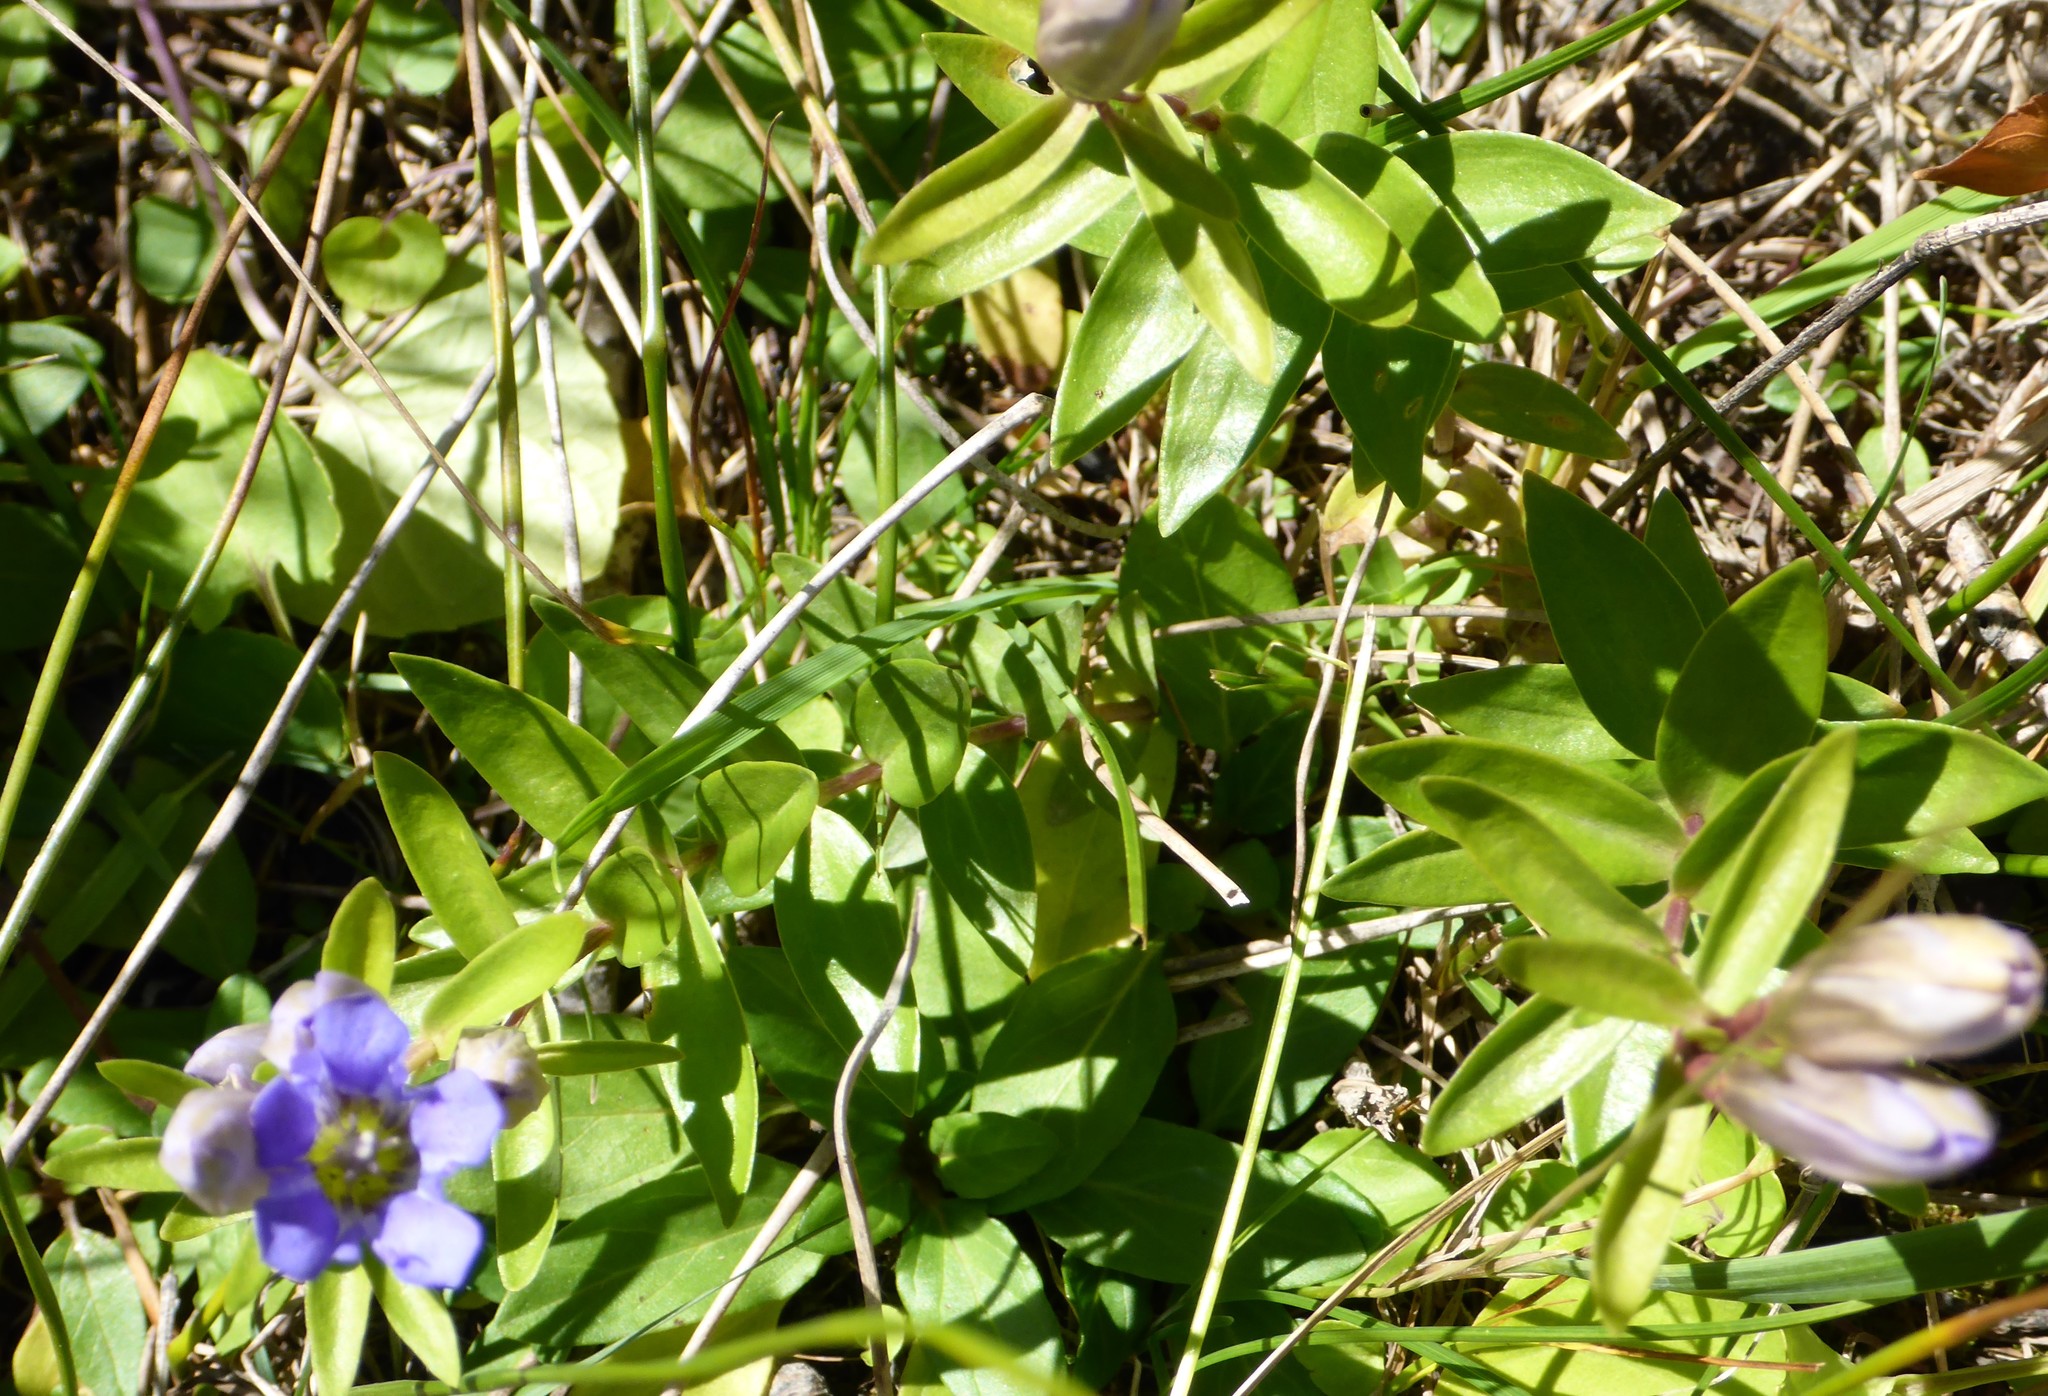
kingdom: Plantae
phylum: Tracheophyta
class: Magnoliopsida
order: Gentianales
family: Gentianaceae
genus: Gentiana
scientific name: Gentiana affinis
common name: Rocky mountain gentian
